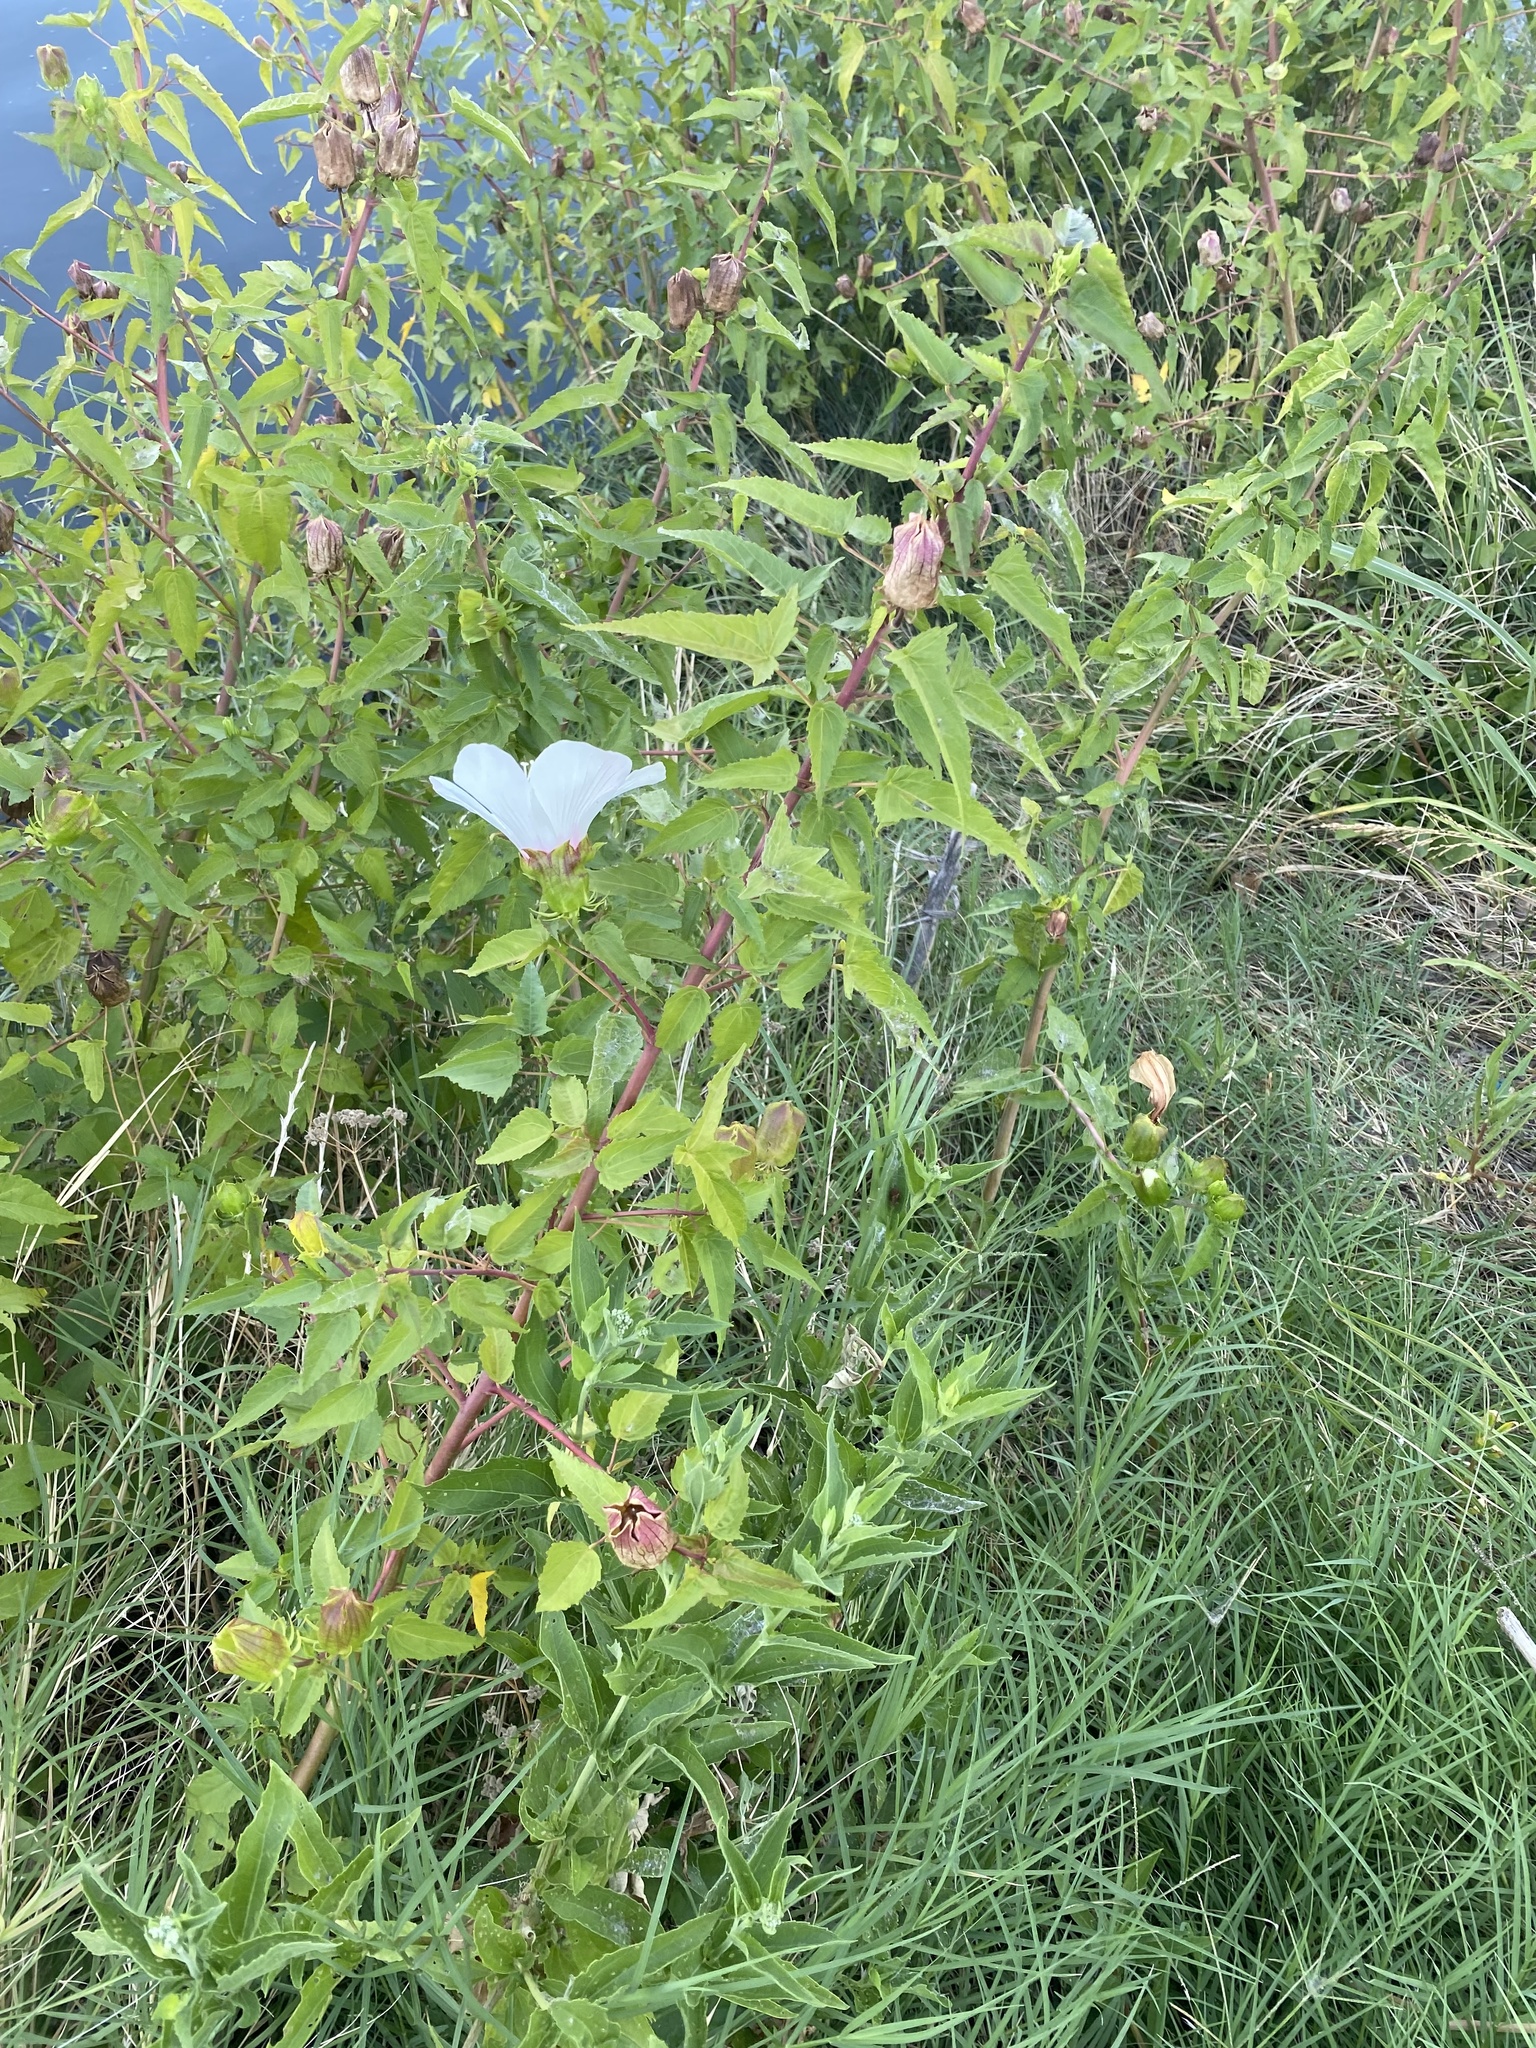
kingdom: Plantae
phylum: Tracheophyta
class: Magnoliopsida
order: Malvales
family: Malvaceae
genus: Hibiscus
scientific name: Hibiscus laevis
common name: Scarlet rose-mallow
